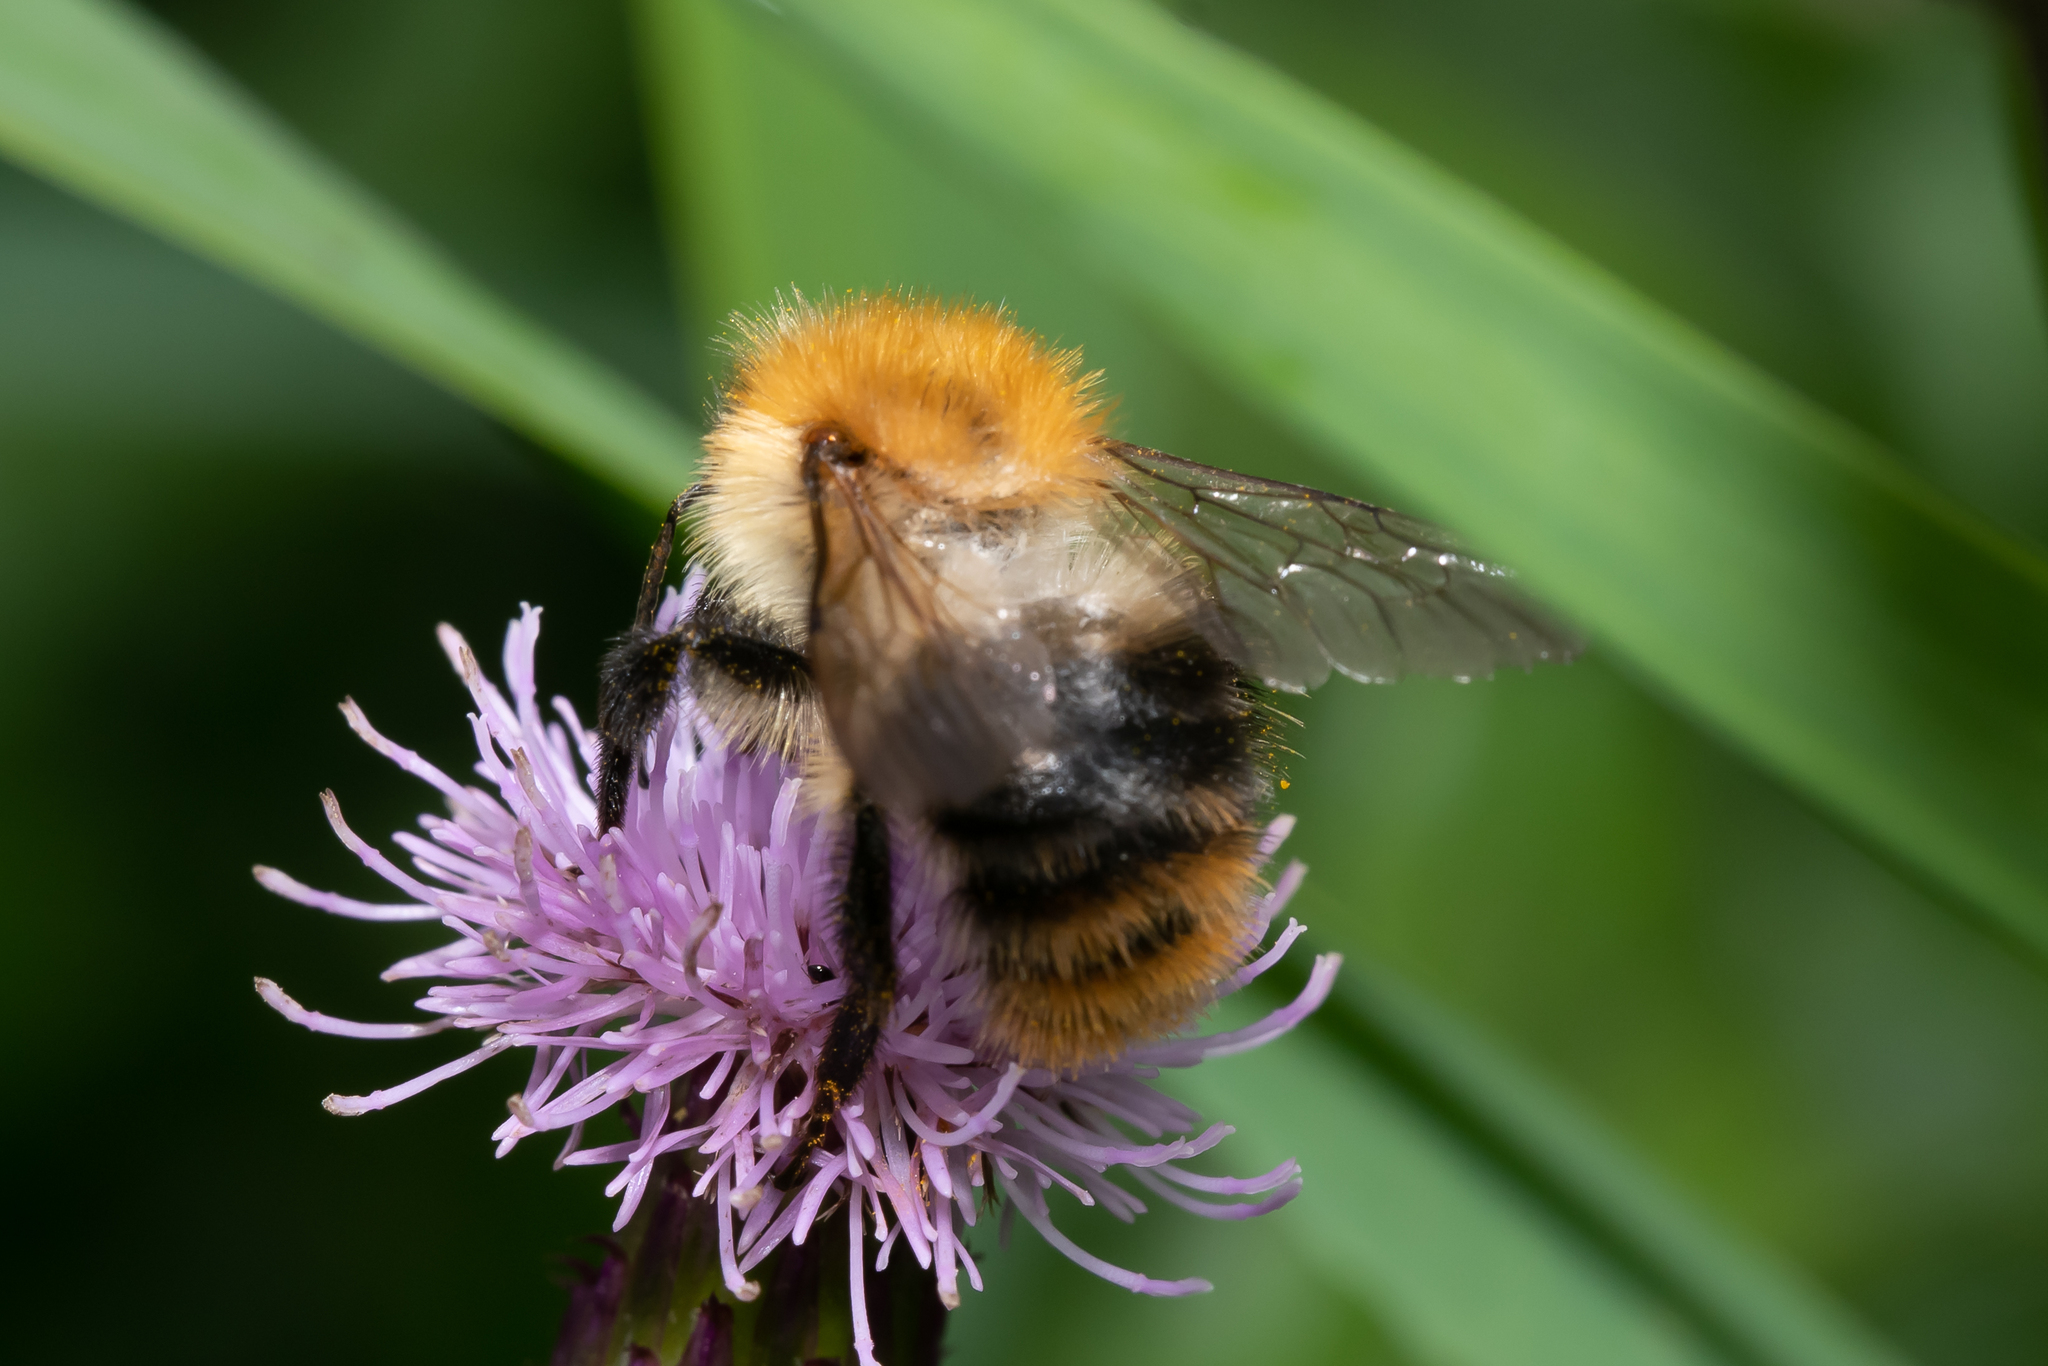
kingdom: Animalia
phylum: Arthropoda
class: Insecta
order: Hymenoptera
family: Apidae
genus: Bombus
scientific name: Bombus pascuorum
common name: Common carder bee
